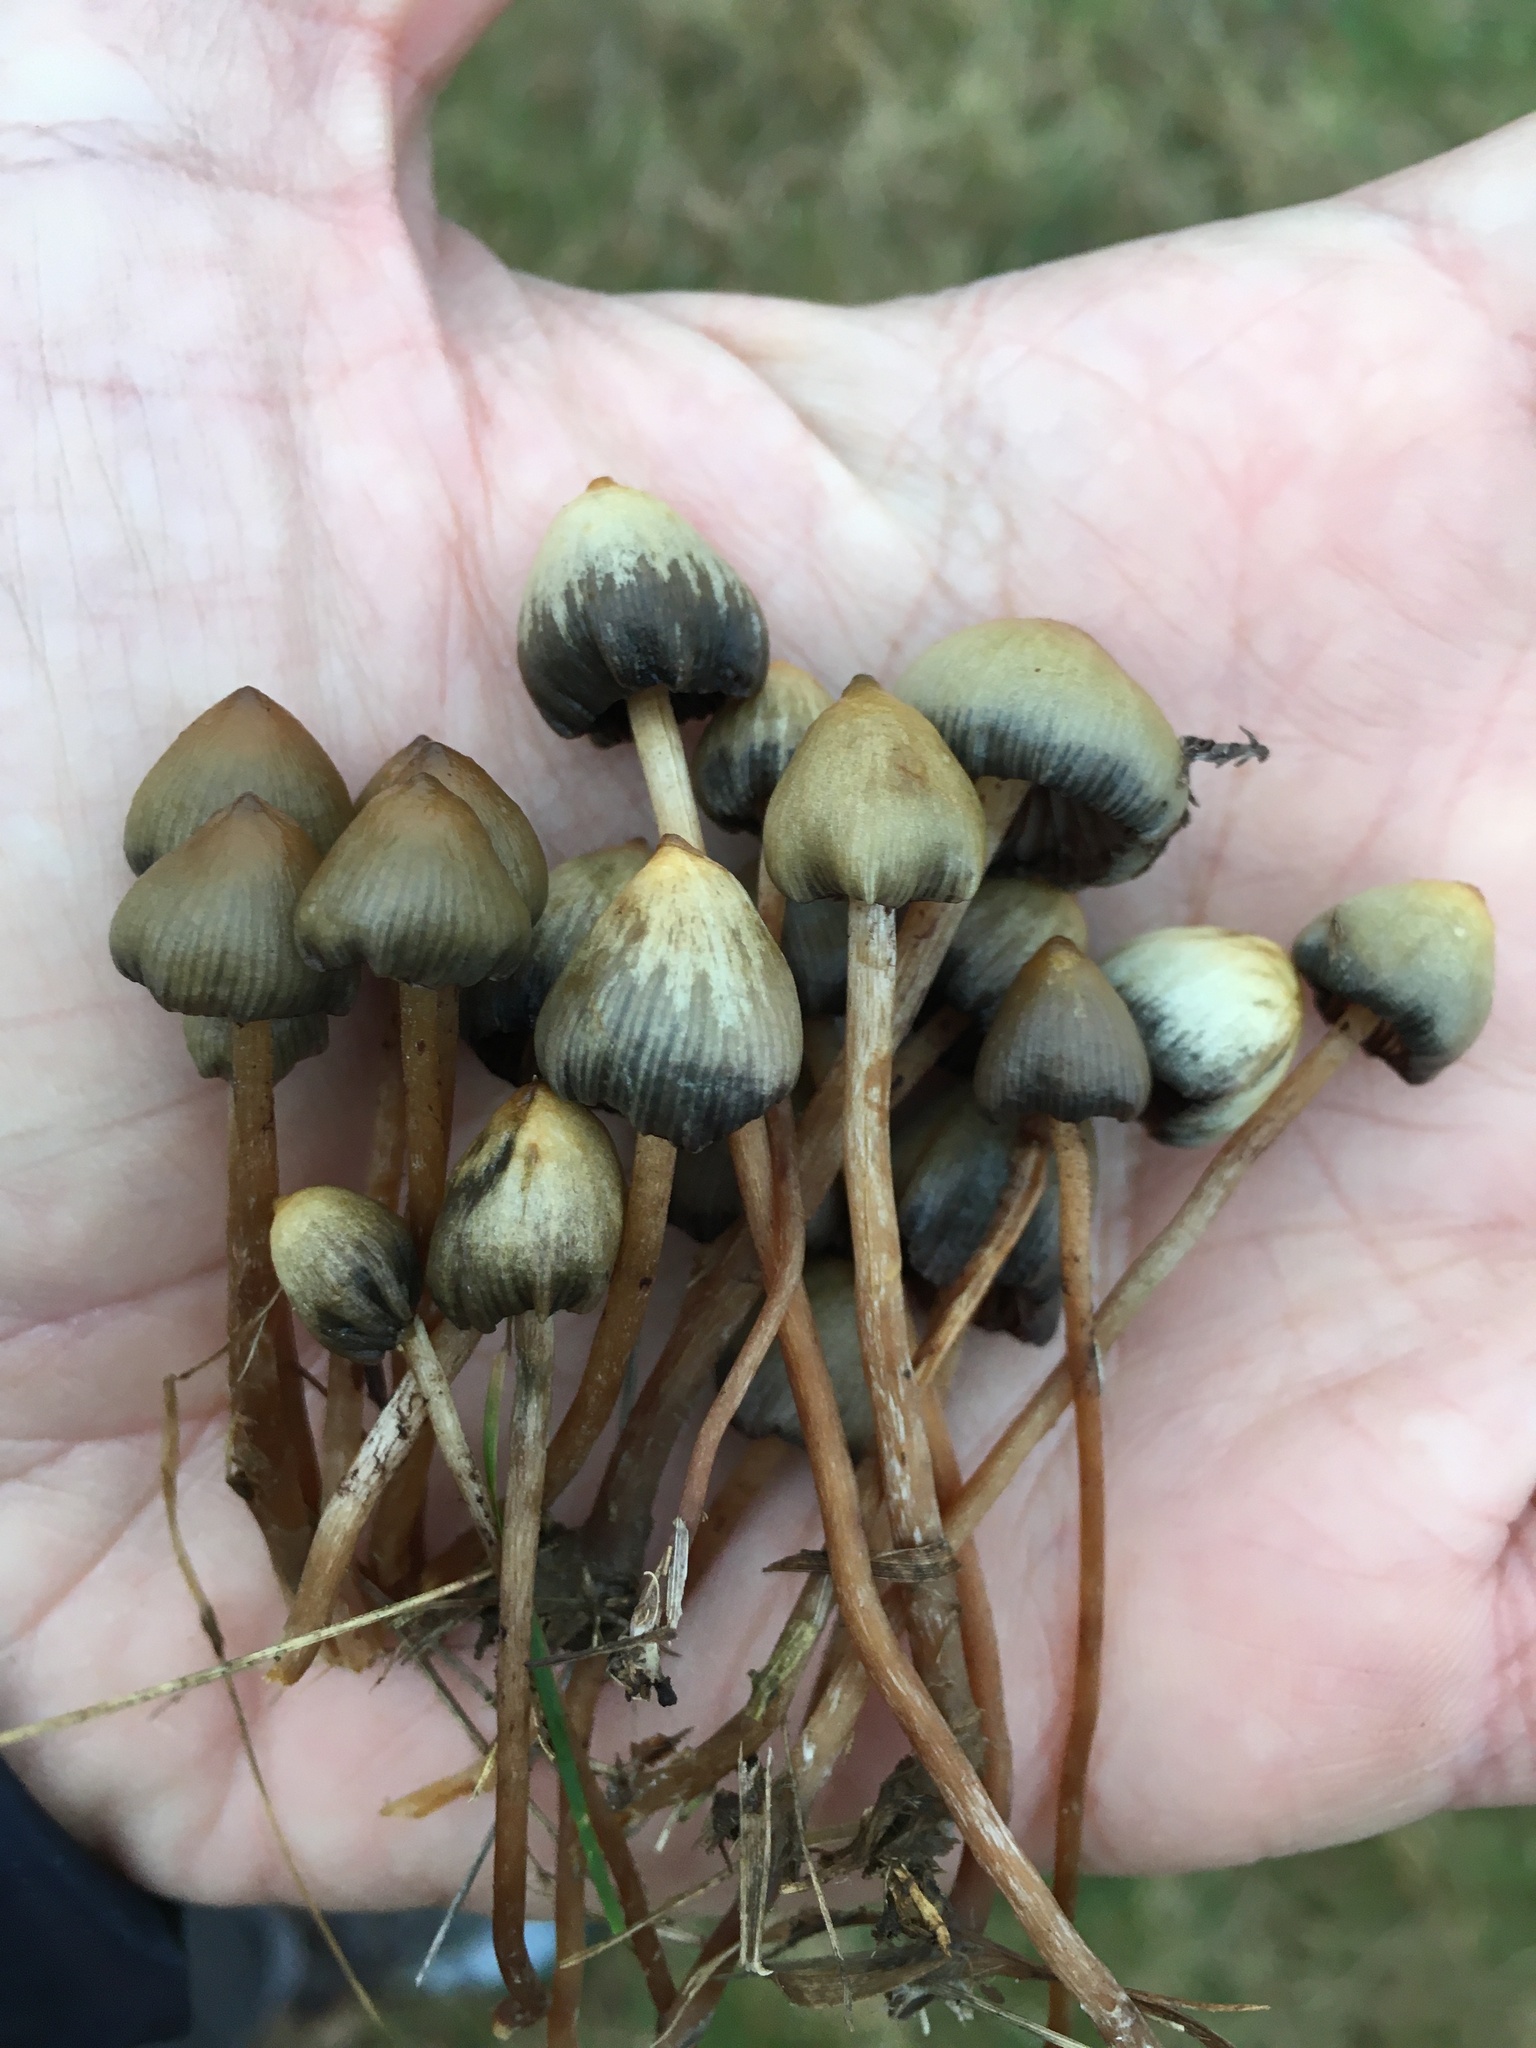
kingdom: Fungi
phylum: Basidiomycota
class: Agaricomycetes
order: Agaricales
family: Hymenogastraceae
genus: Psilocybe
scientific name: Psilocybe semilanceata
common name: Liberty cap
